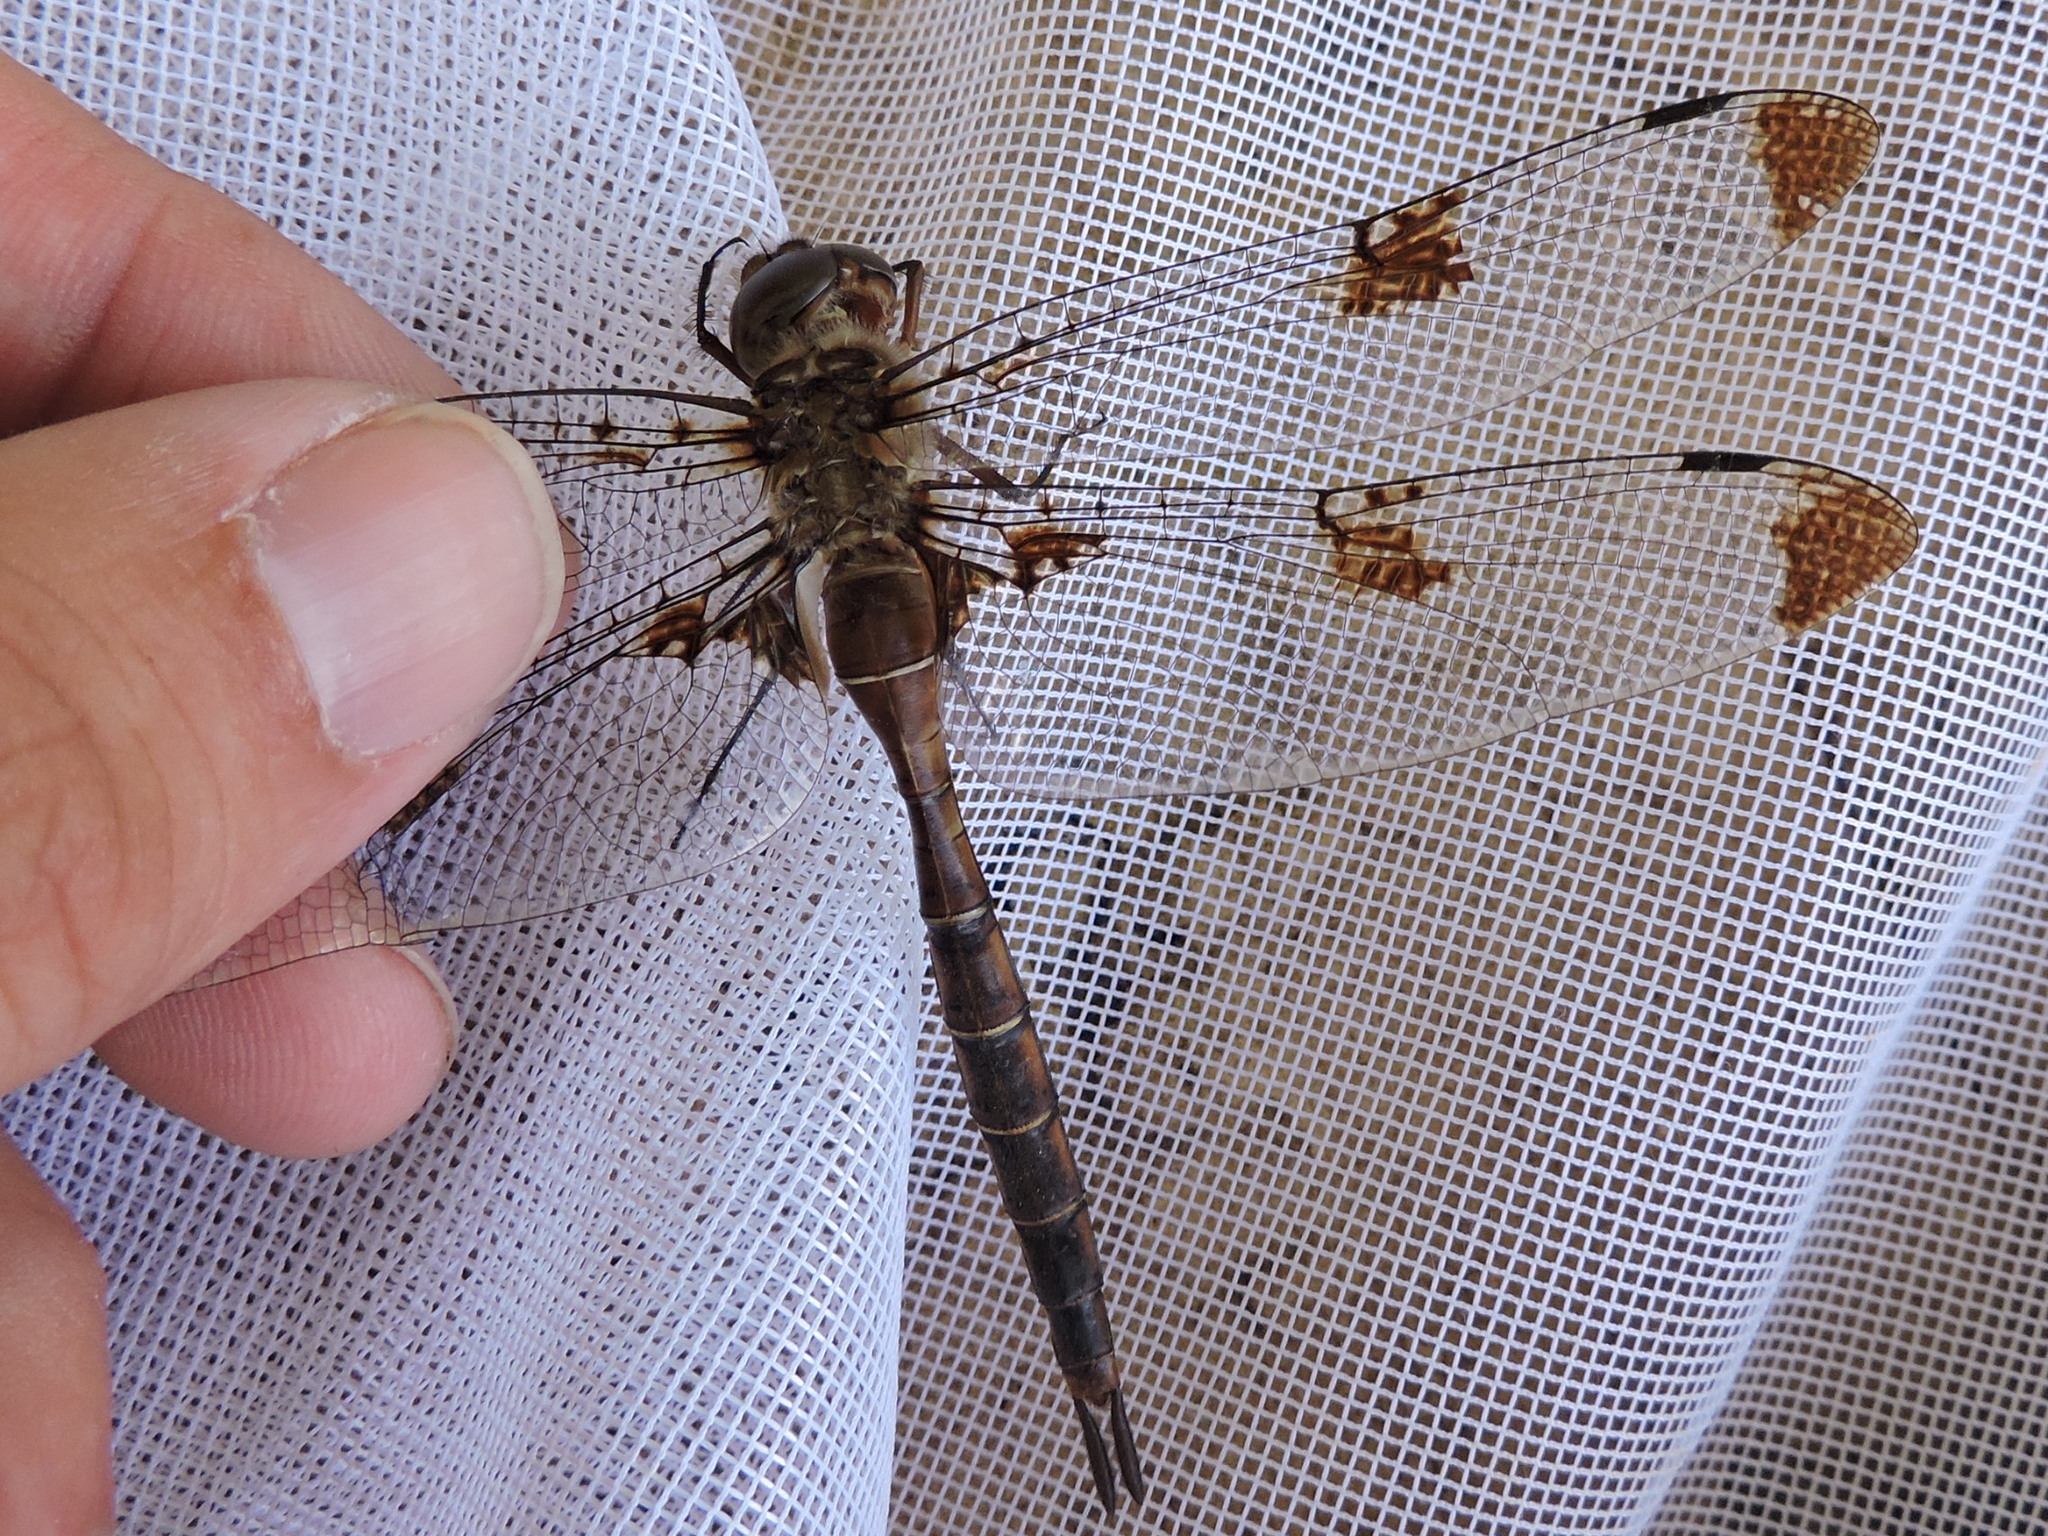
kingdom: Animalia
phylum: Arthropoda
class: Insecta
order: Odonata
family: Corduliidae
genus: Epitheca
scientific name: Epitheca princeps
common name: Prince baskettail
